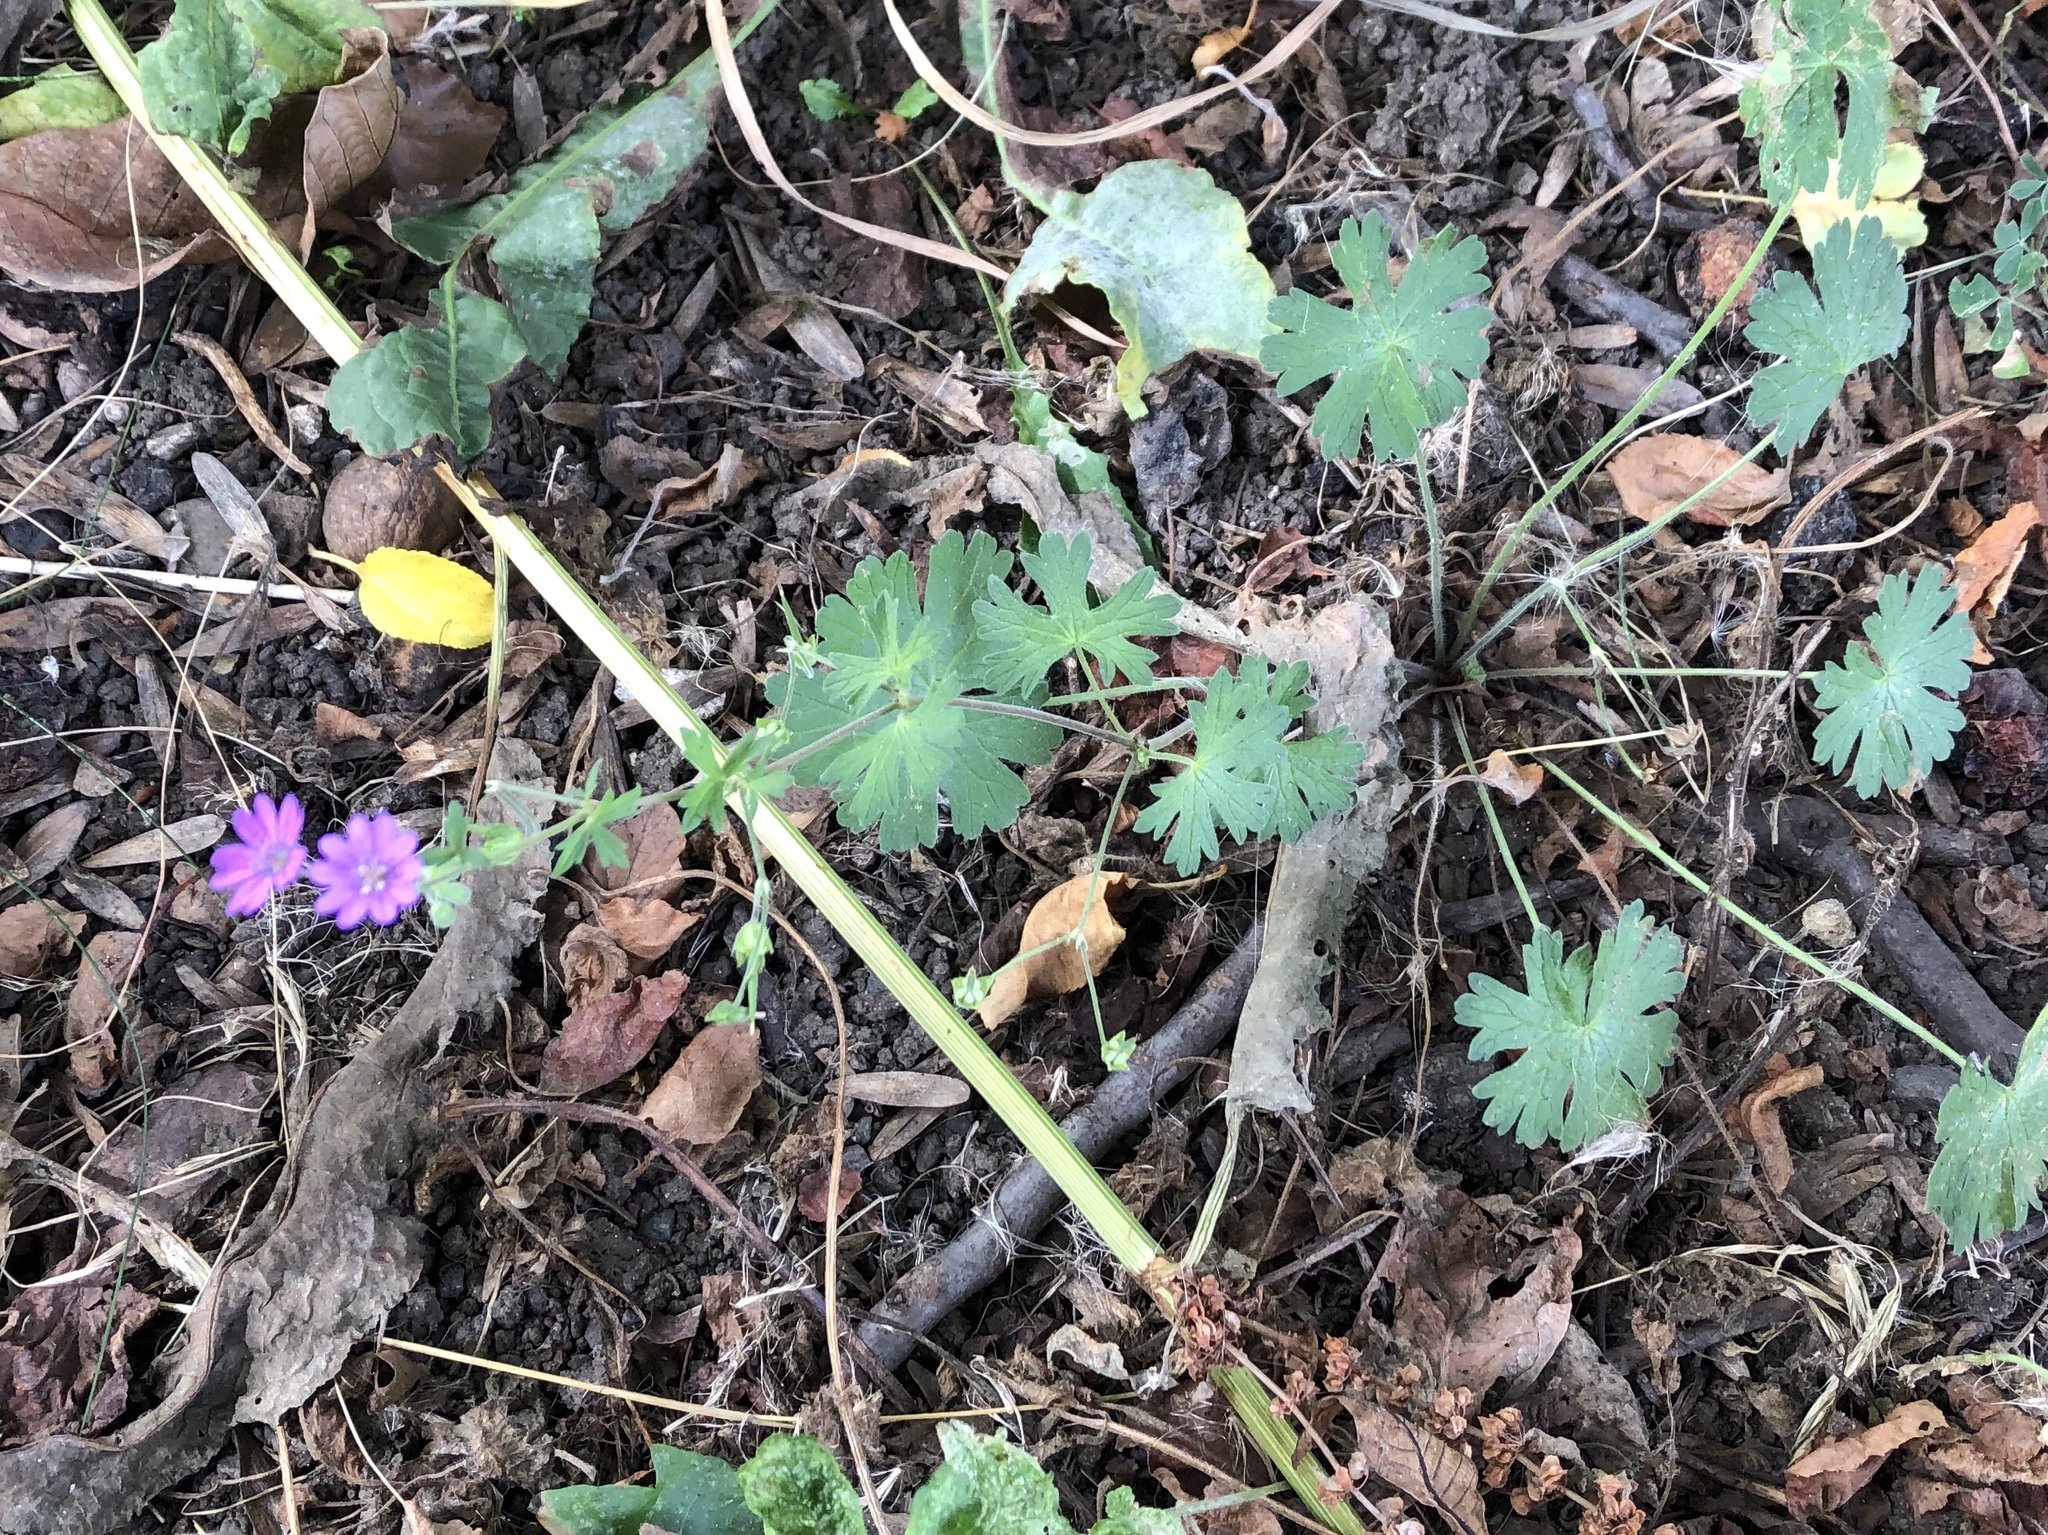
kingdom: Plantae
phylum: Tracheophyta
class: Magnoliopsida
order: Geraniales
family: Geraniaceae
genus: Geranium
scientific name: Geranium pyrenaicum
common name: Hedgerow crane's-bill
